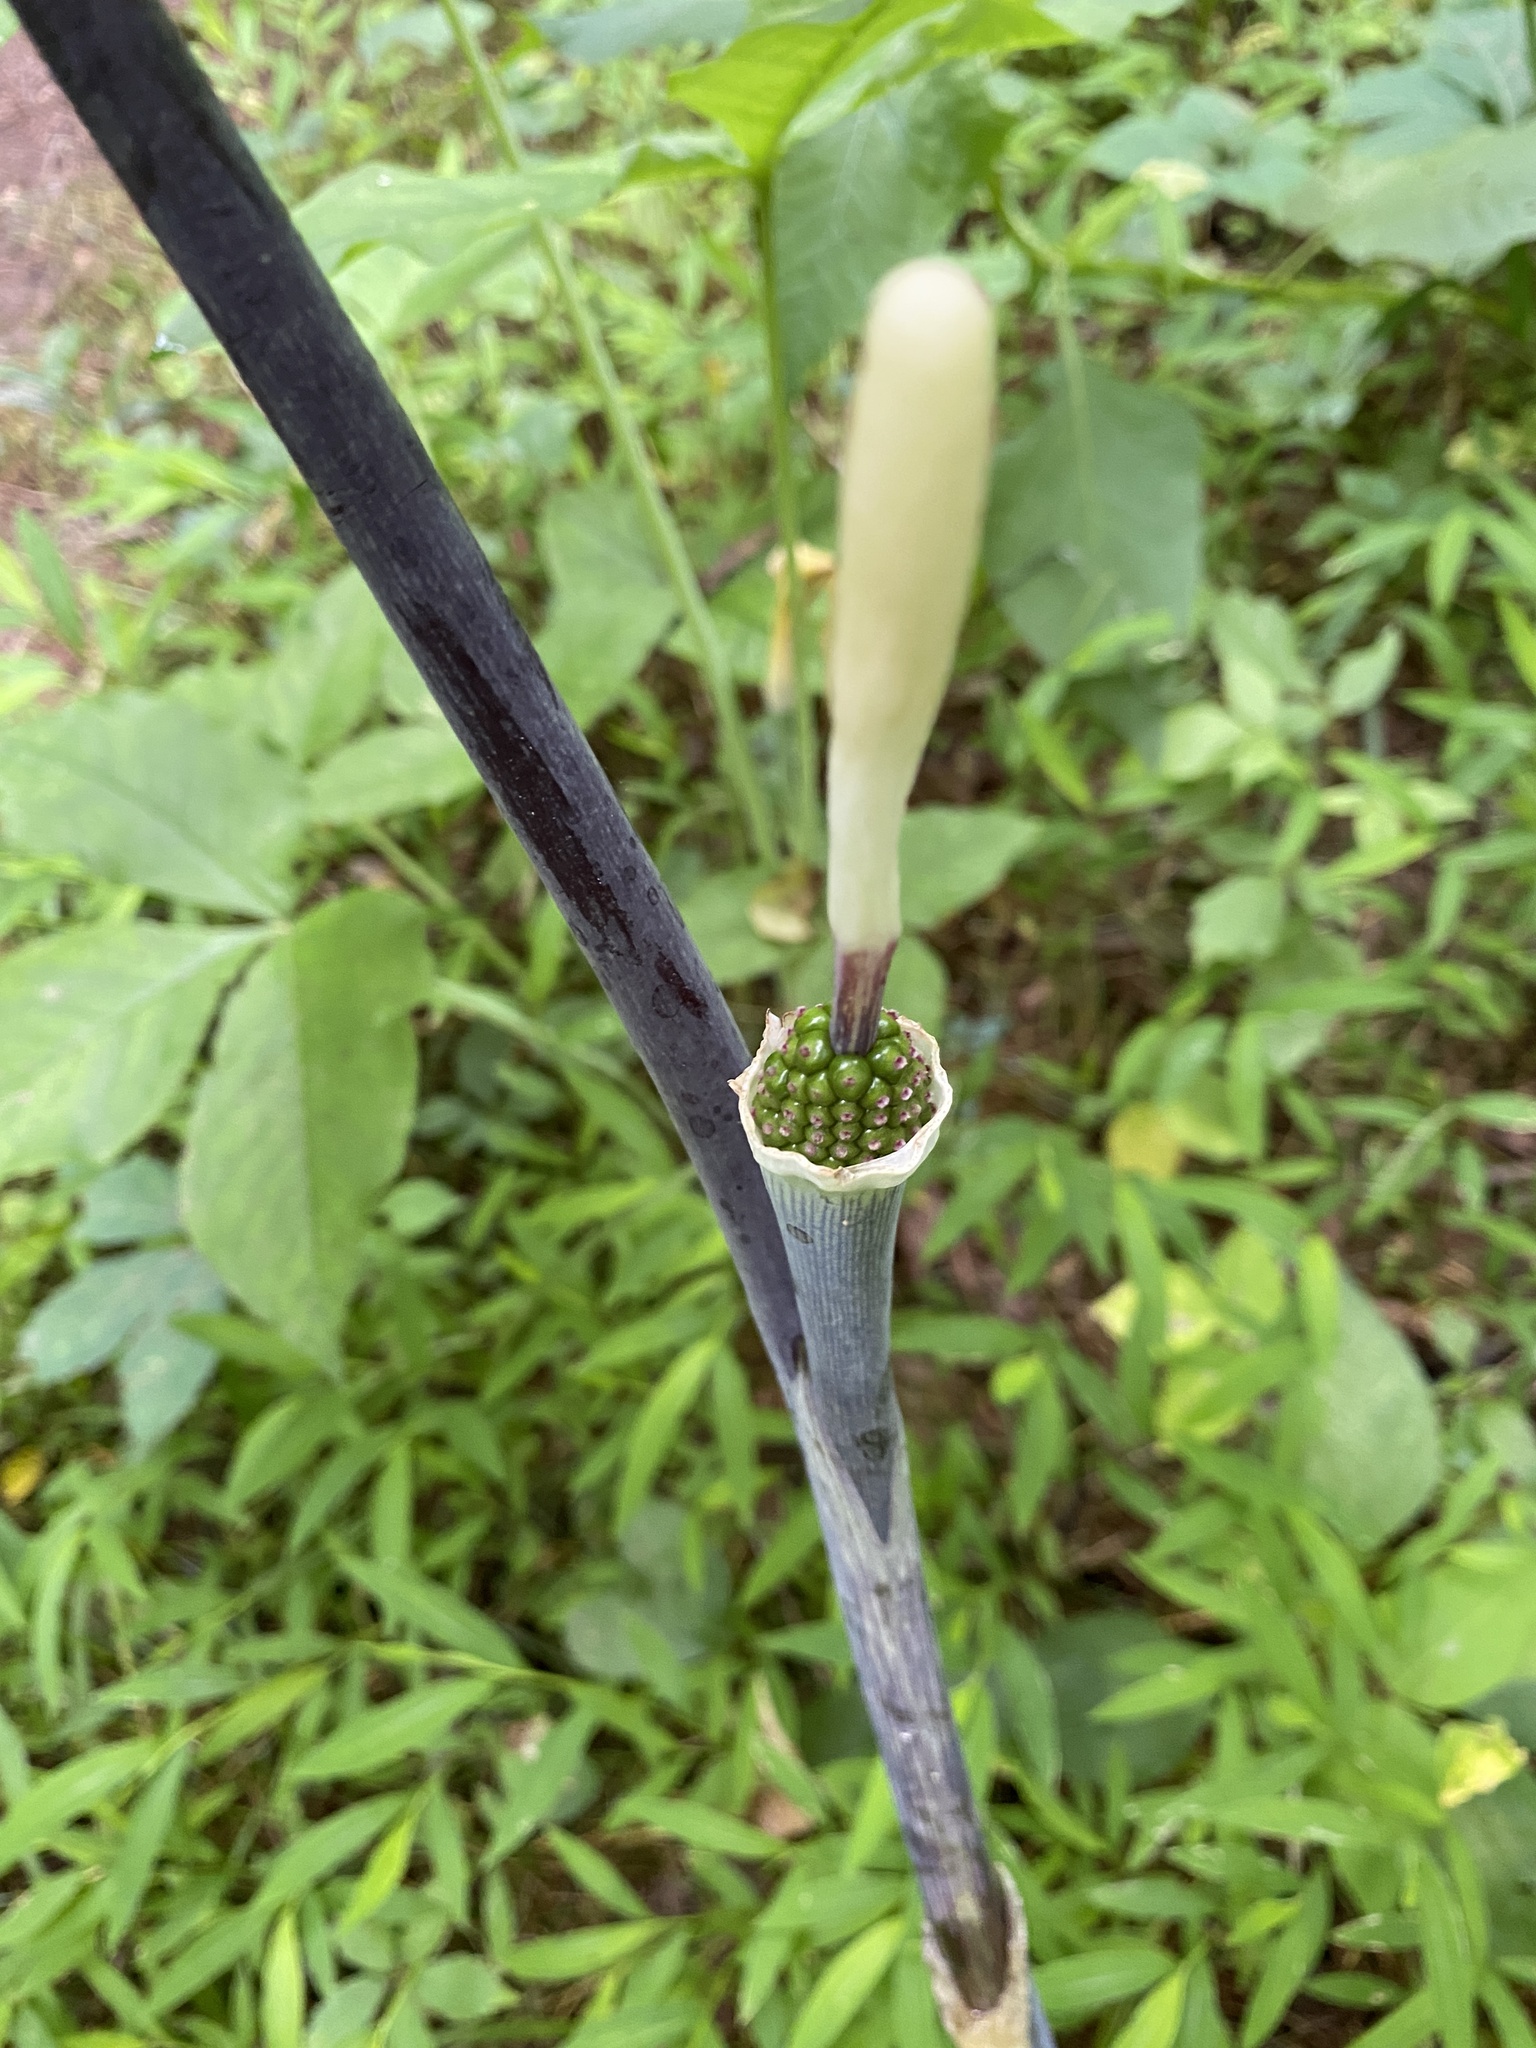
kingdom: Plantae
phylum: Tracheophyta
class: Liliopsida
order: Alismatales
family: Araceae
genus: Arisaema
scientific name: Arisaema triphyllum
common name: Jack-in-the-pulpit
